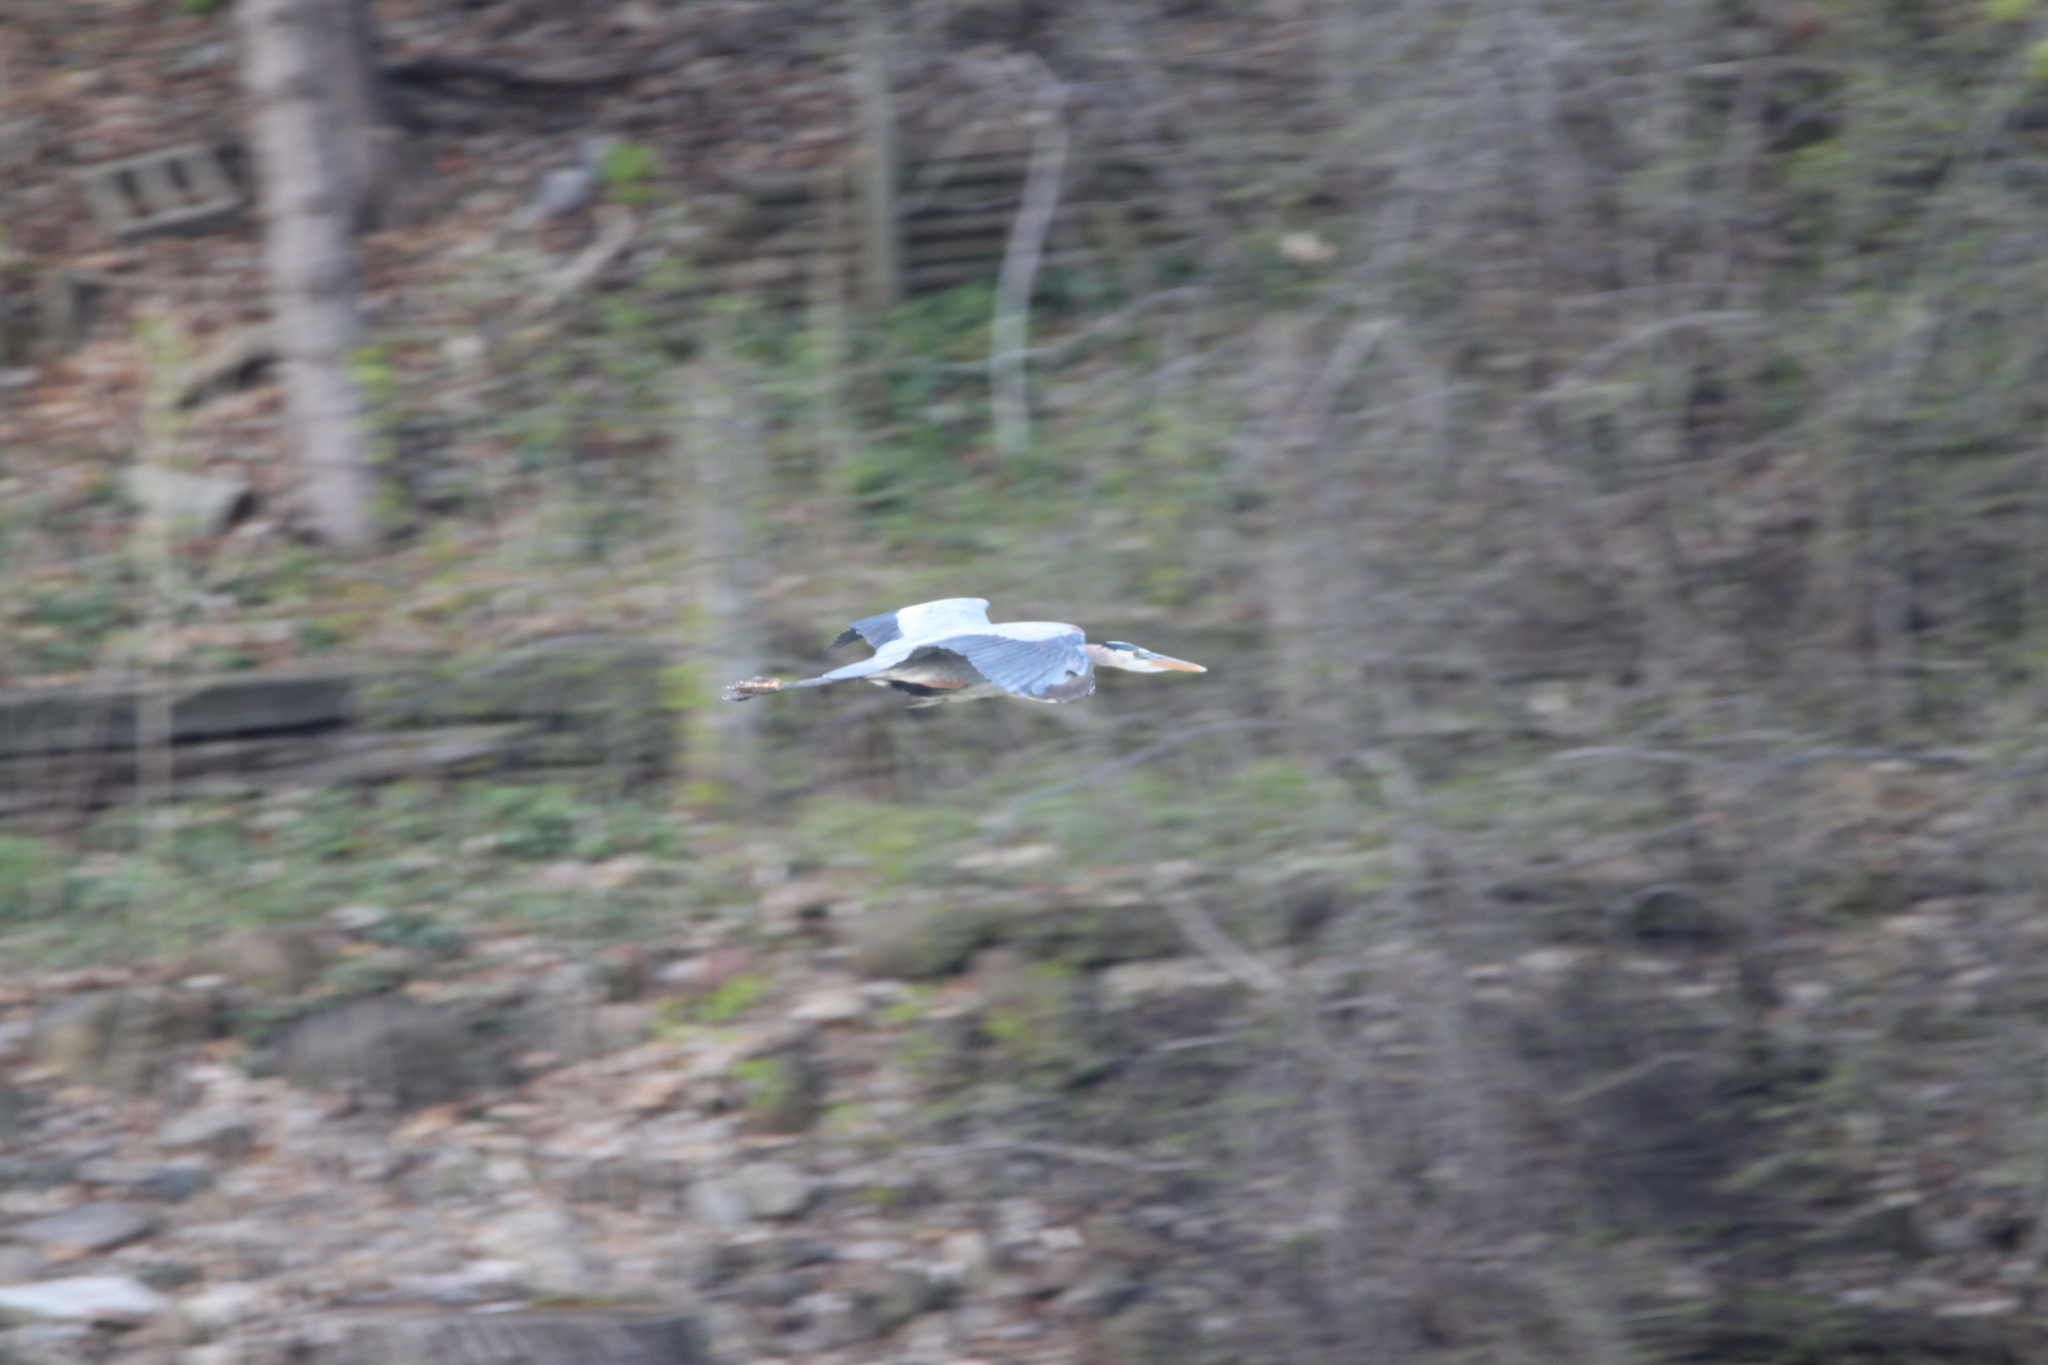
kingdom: Animalia
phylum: Chordata
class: Aves
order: Pelecaniformes
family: Ardeidae
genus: Ardea
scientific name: Ardea herodias
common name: Great blue heron
